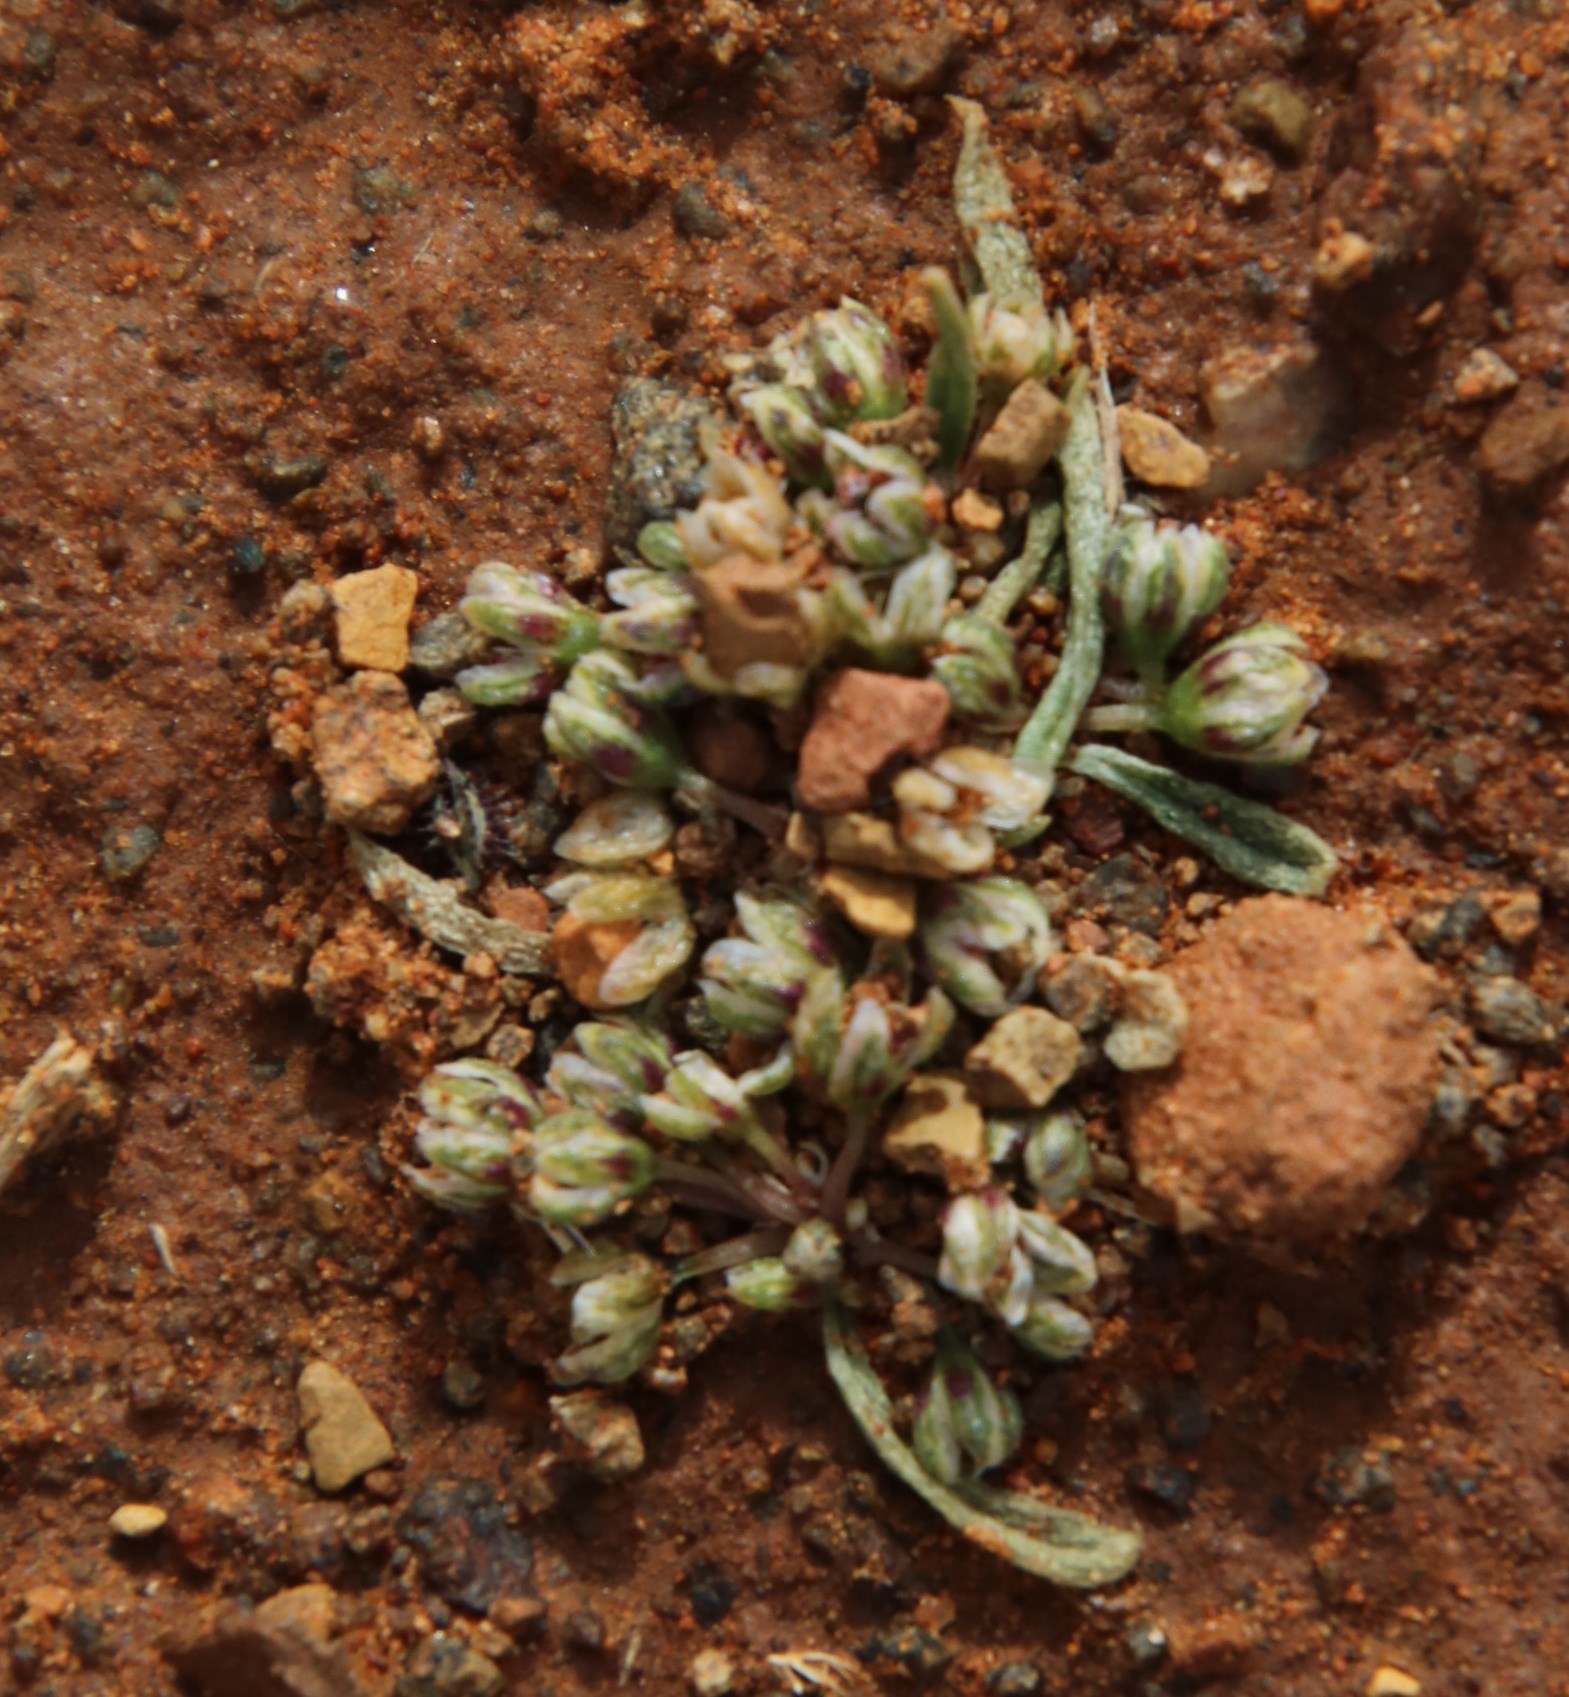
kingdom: Plantae
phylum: Tracheophyta
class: Magnoliopsida
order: Caryophyllales
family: Gisekiaceae
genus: Gisekia
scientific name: Gisekia pharnaceoides
